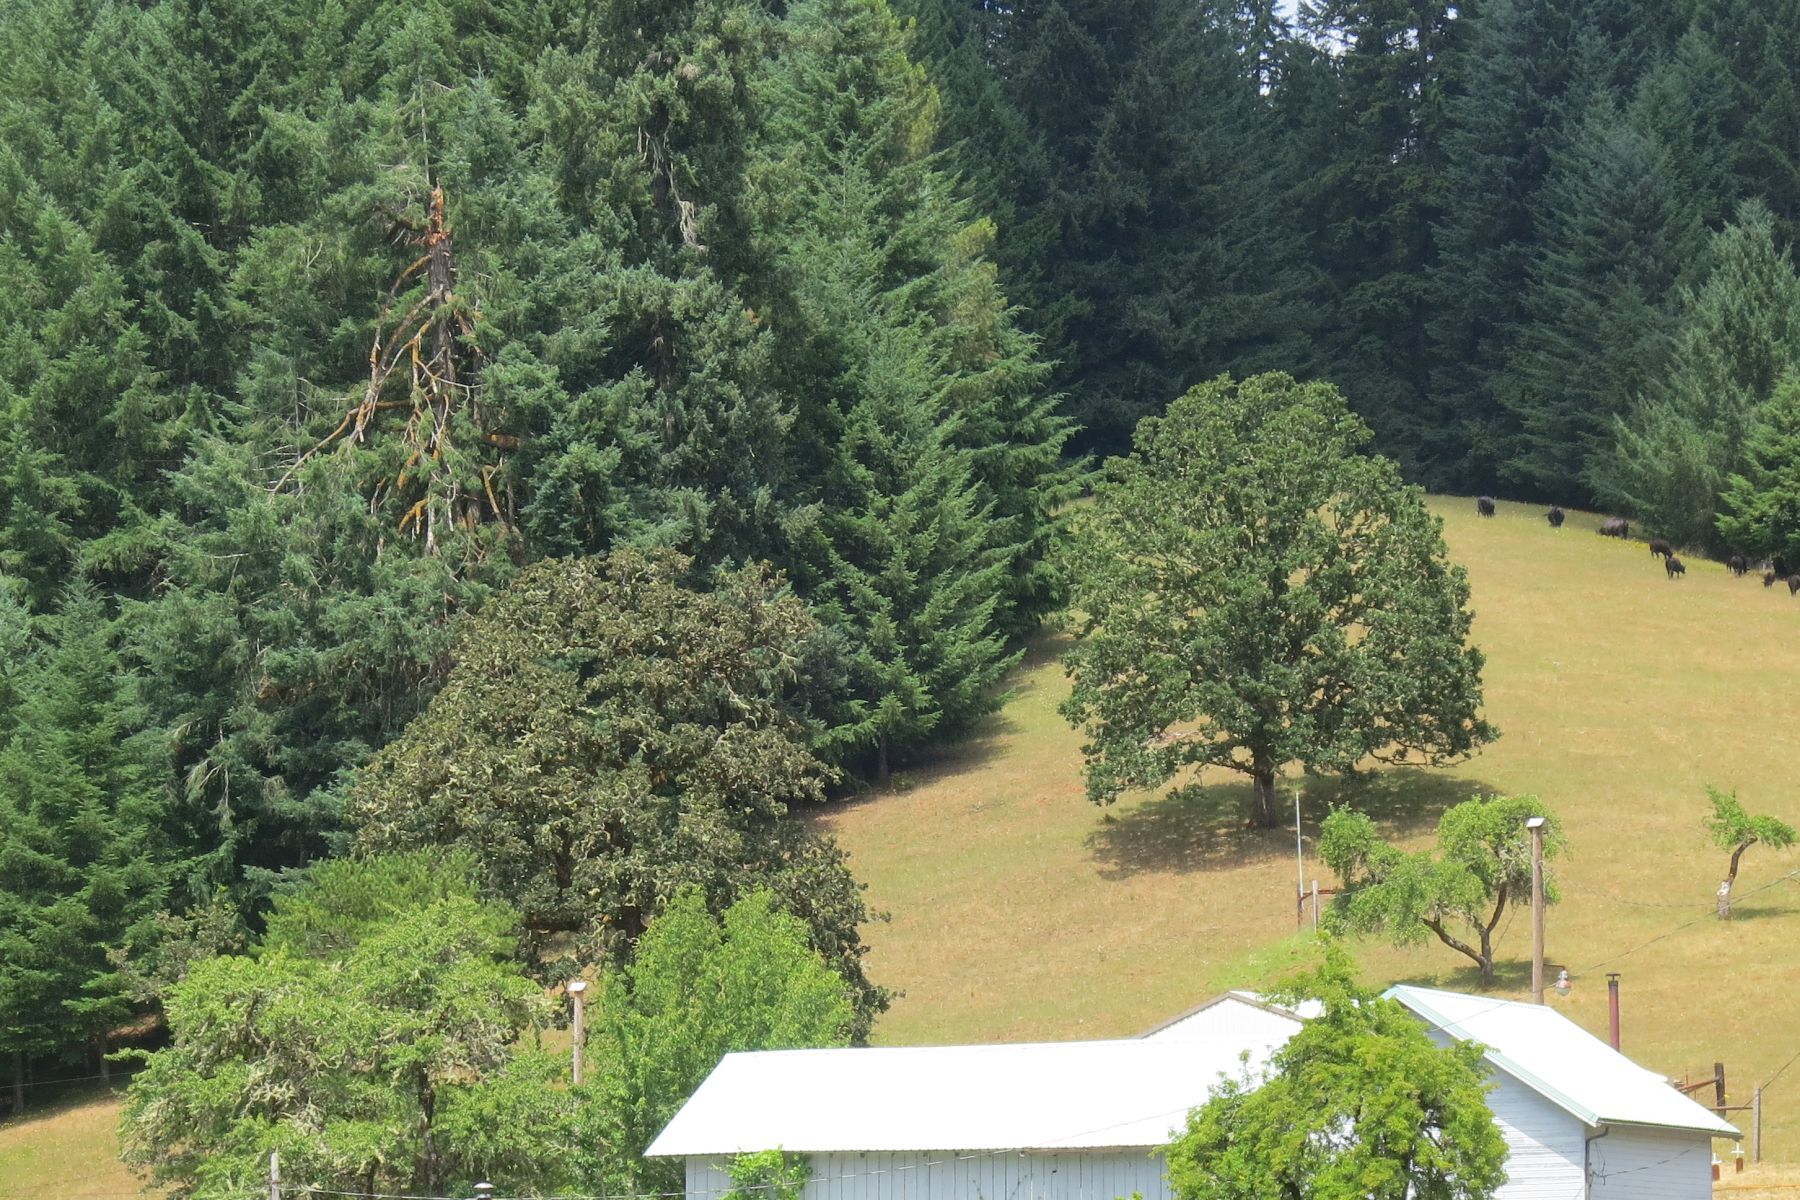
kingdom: Plantae
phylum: Tracheophyta
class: Magnoliopsida
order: Fagales
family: Fagaceae
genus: Quercus
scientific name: Quercus garryana
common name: Garry oak
